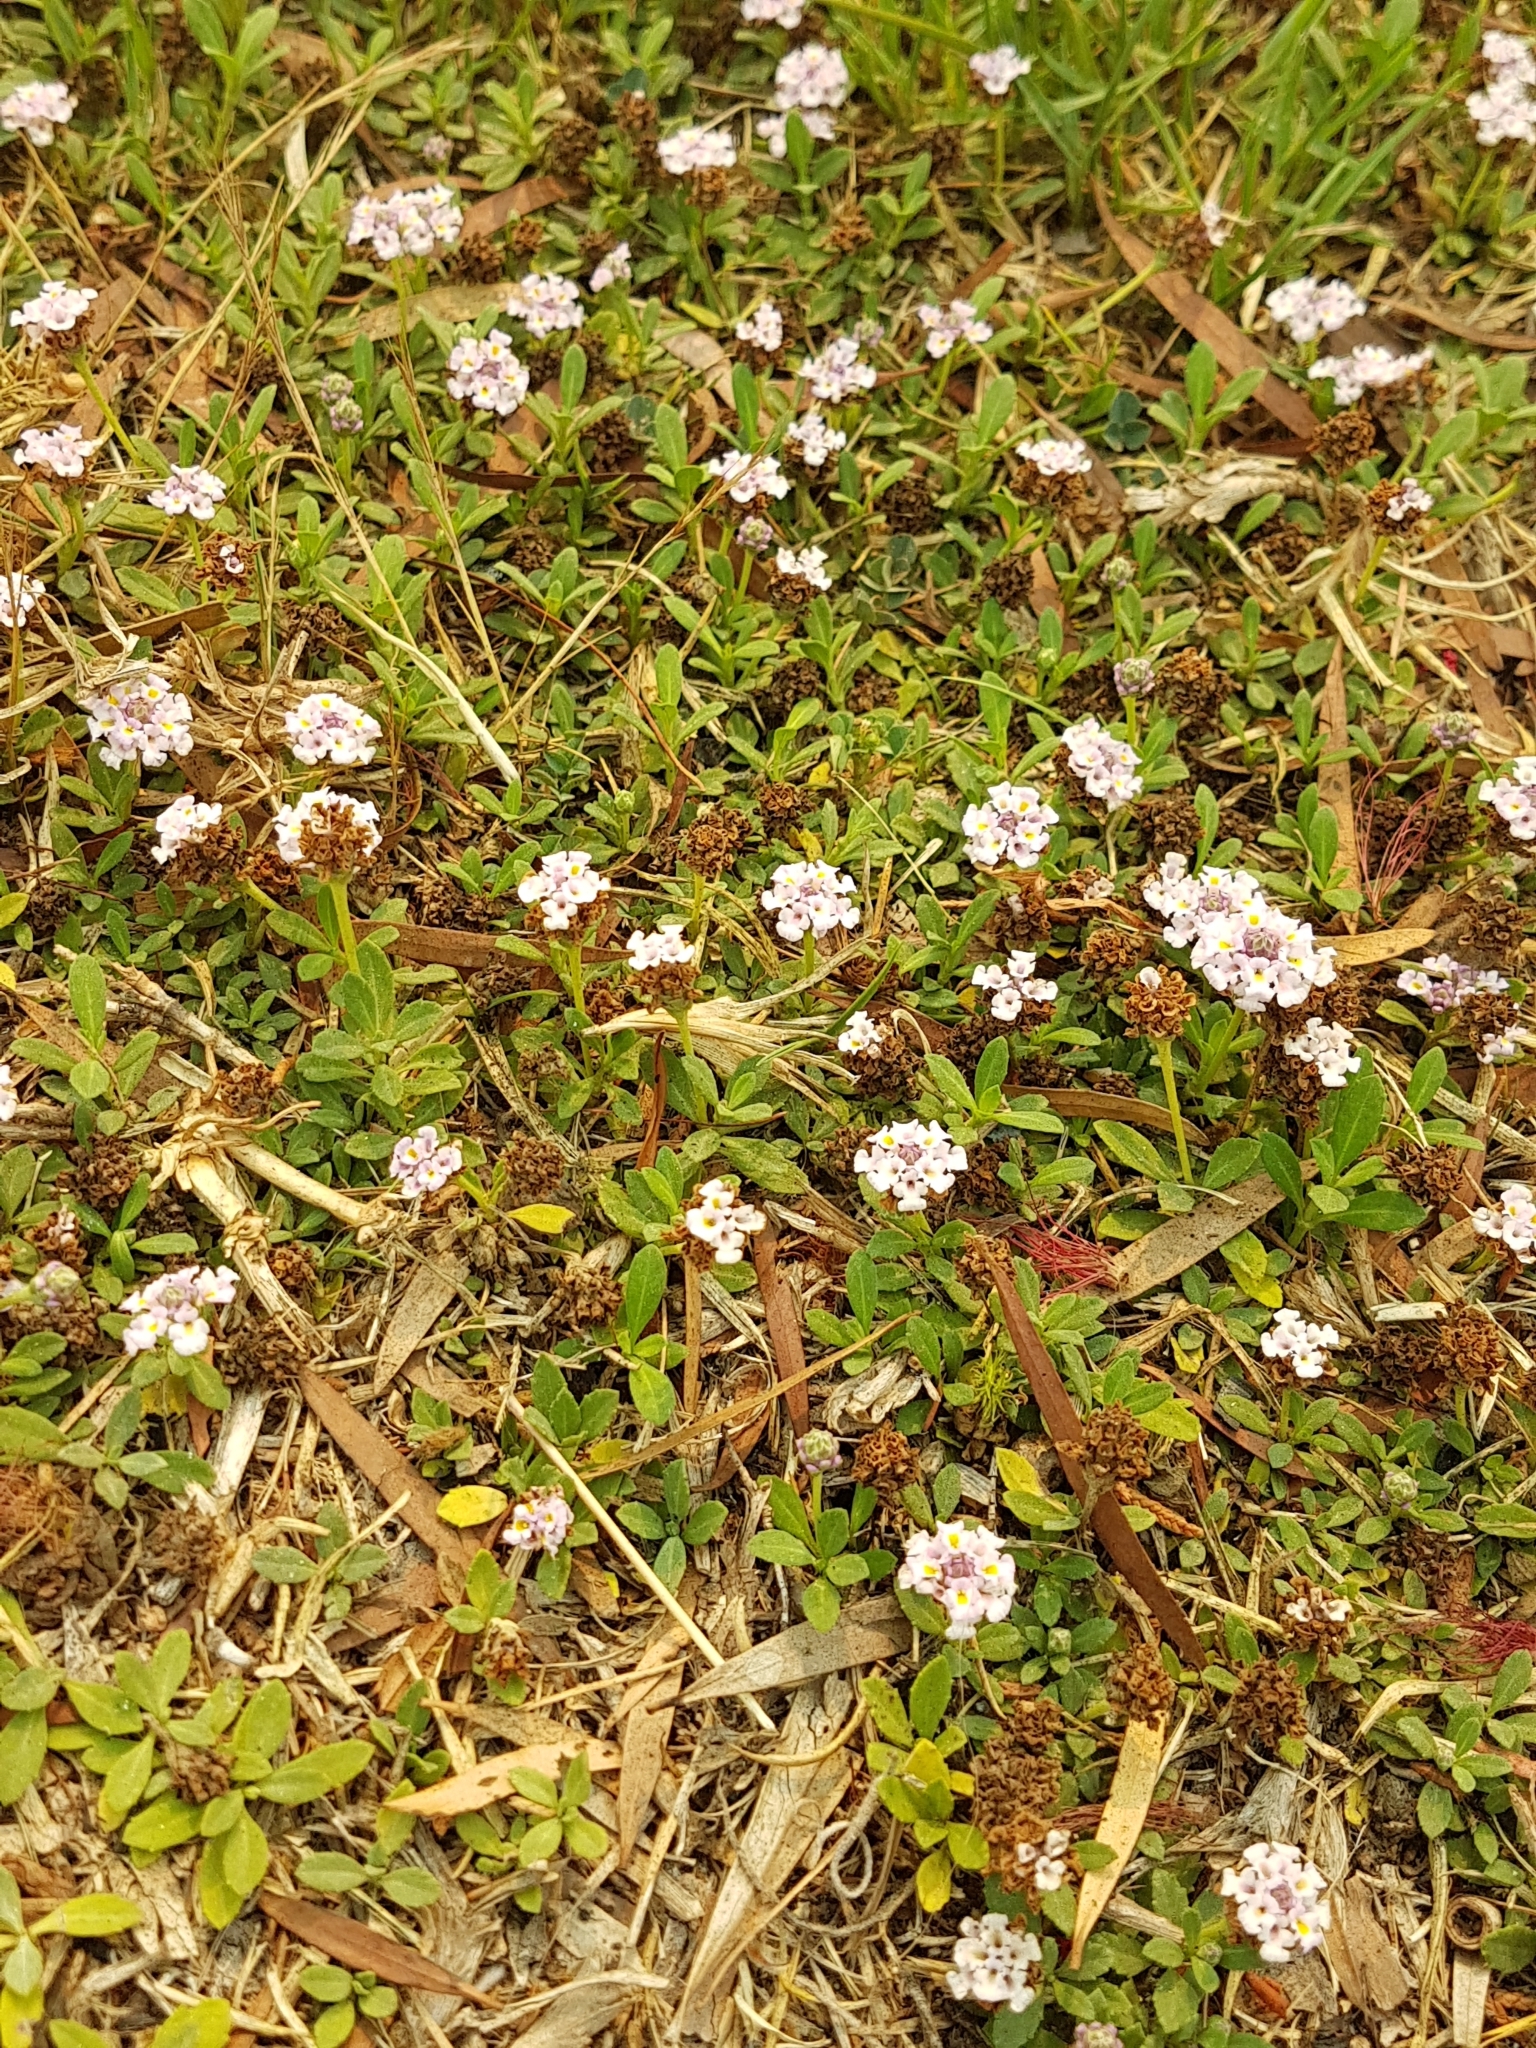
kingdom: Plantae
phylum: Tracheophyta
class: Magnoliopsida
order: Lamiales
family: Verbenaceae
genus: Phyla
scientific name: Phyla nodiflora
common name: Frogfruit
